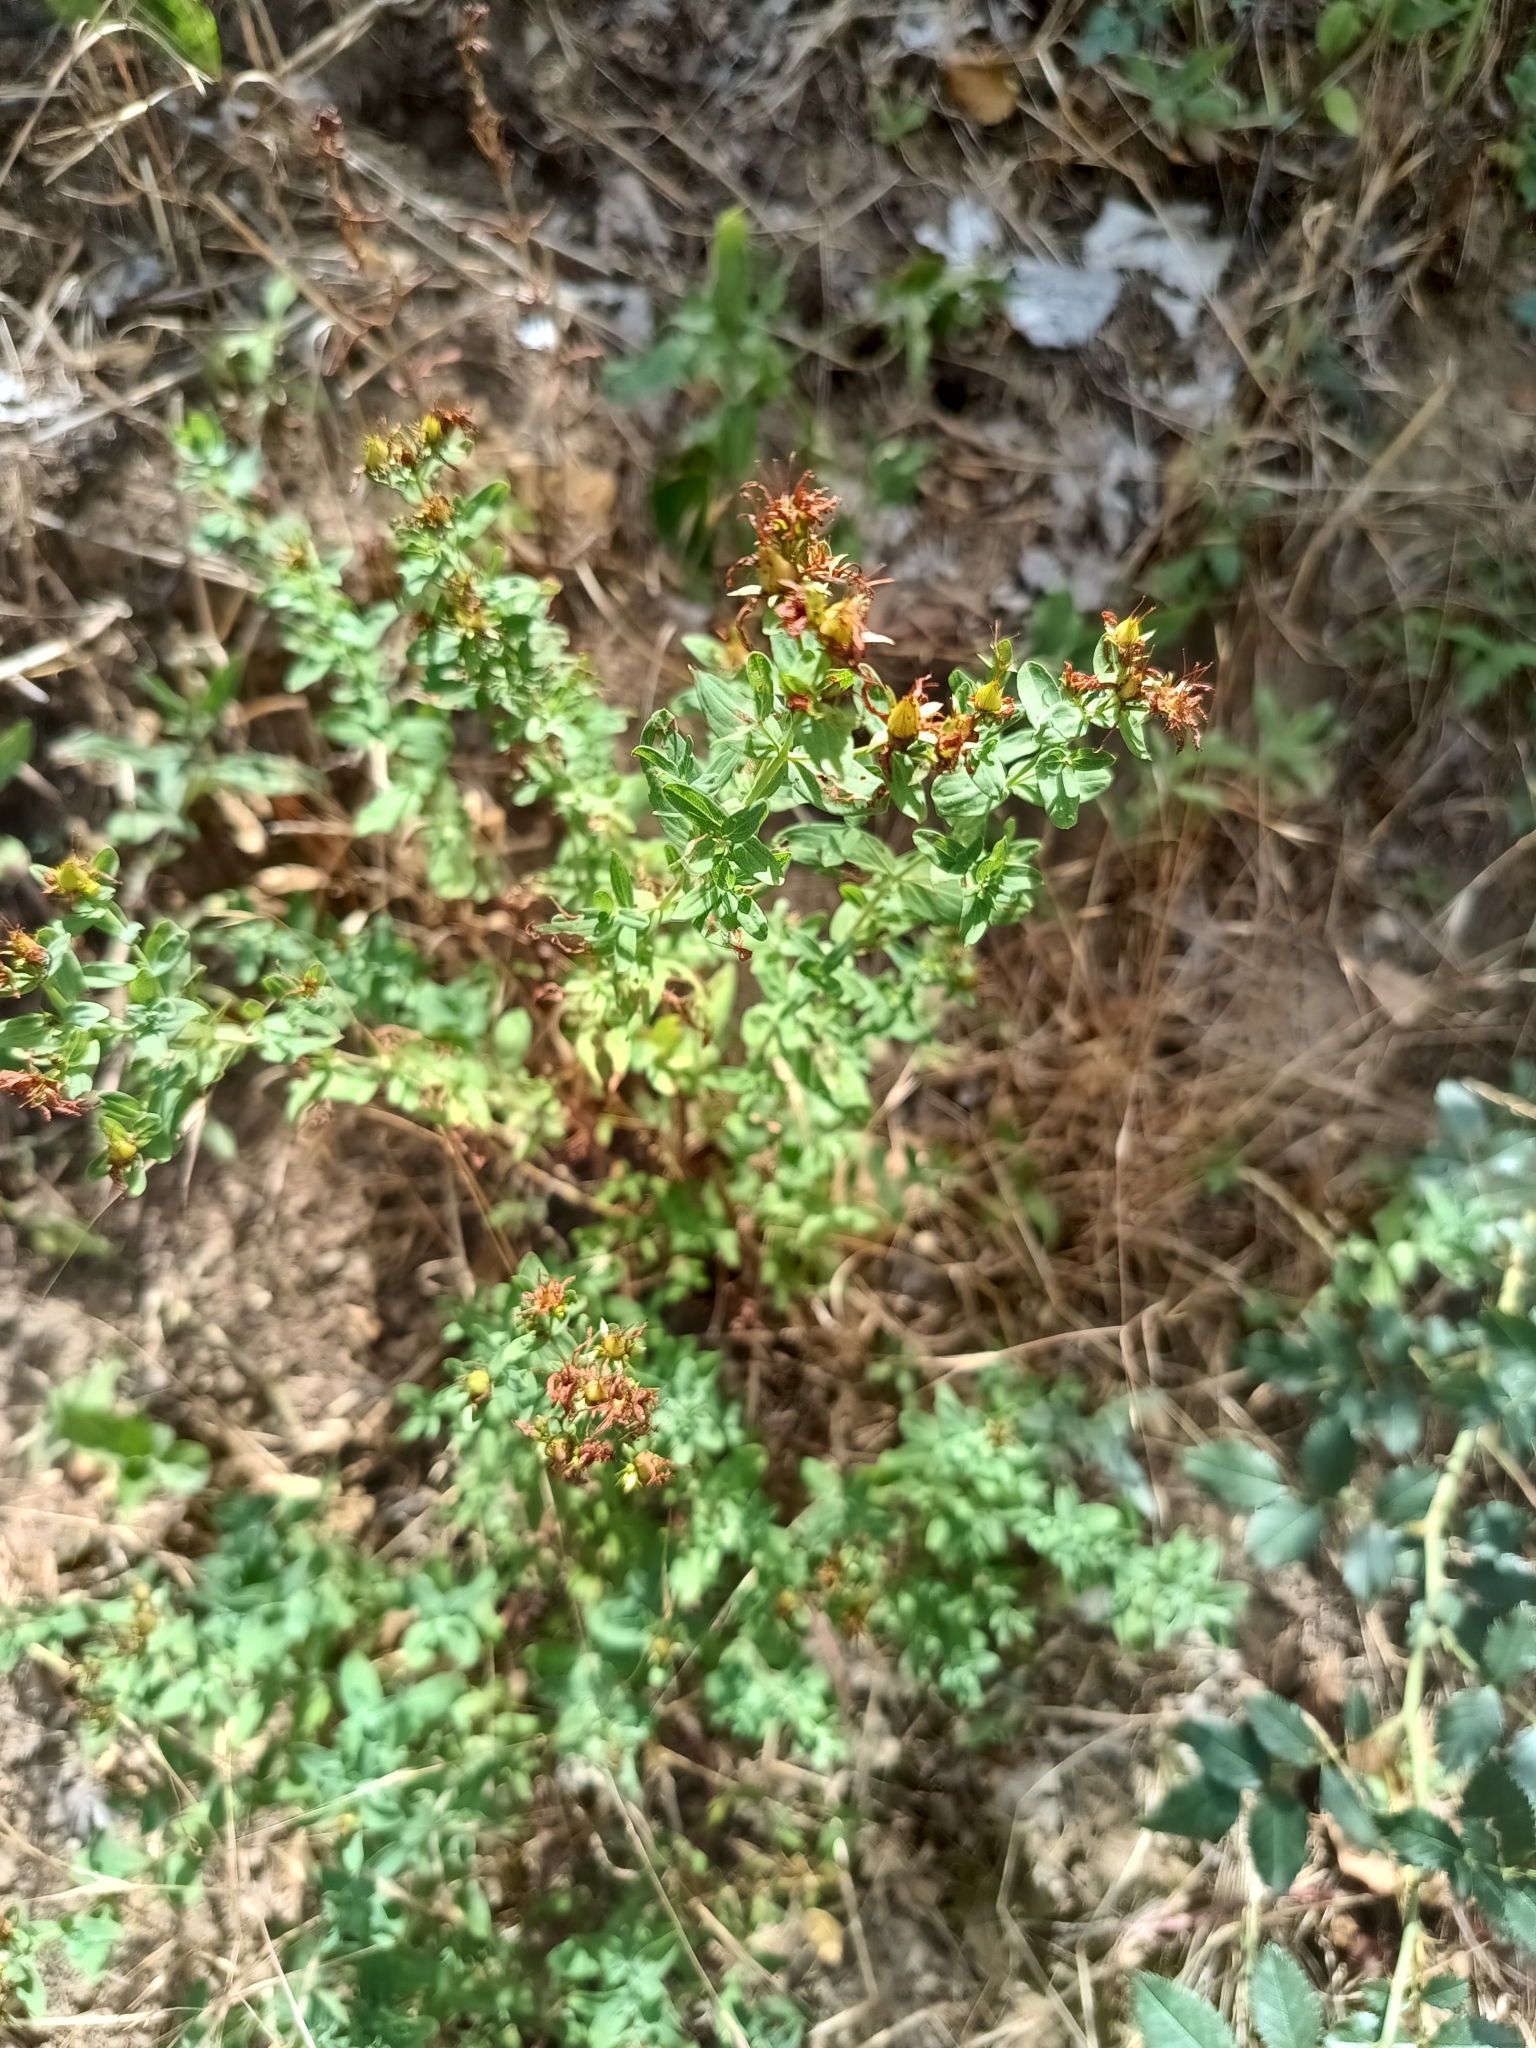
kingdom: Plantae
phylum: Tracheophyta
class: Magnoliopsida
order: Malpighiales
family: Hypericaceae
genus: Hypericum
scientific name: Hypericum perforatum
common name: Common st. johnswort
